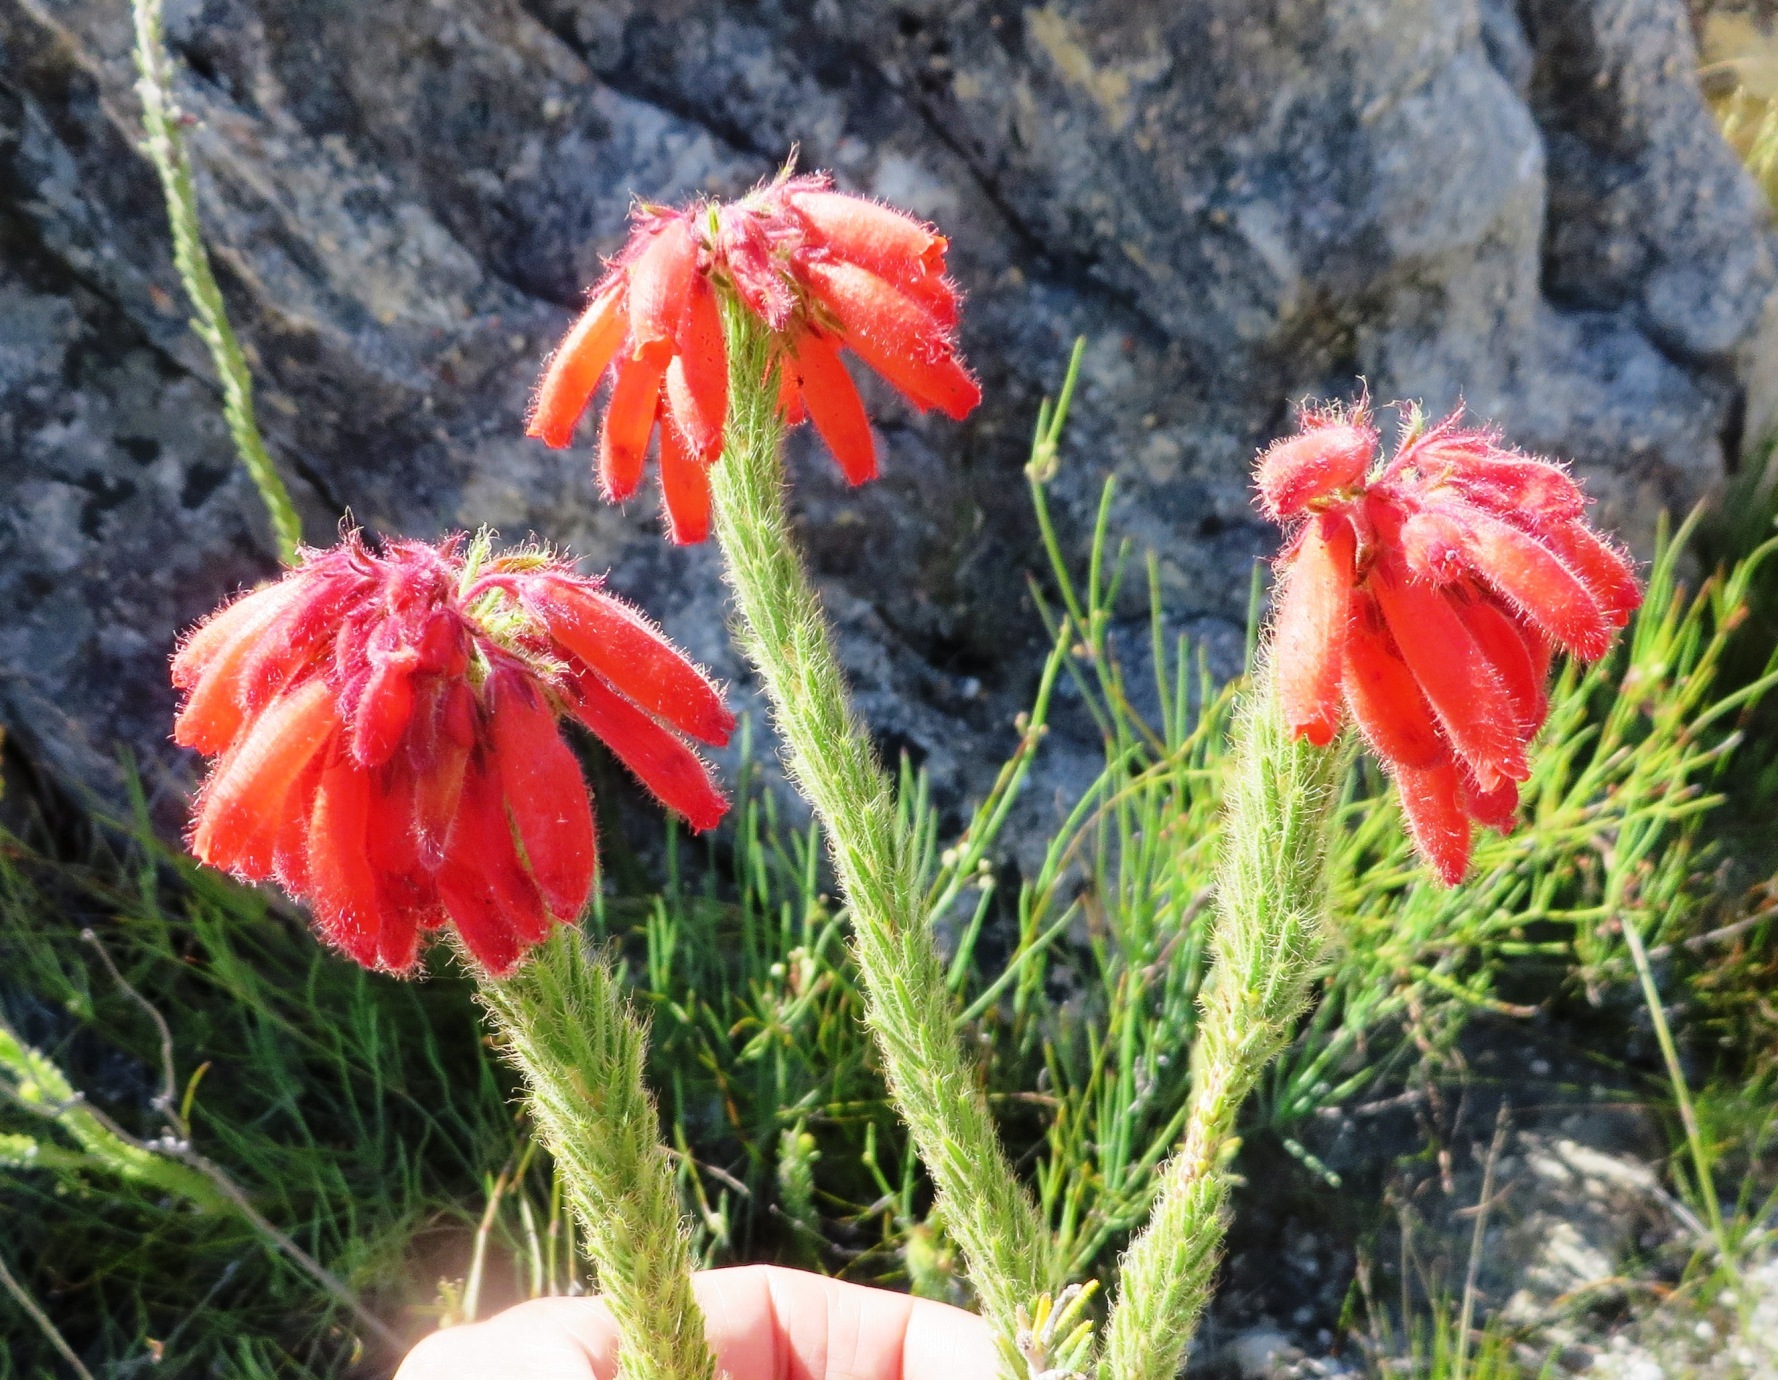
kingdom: Plantae
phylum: Tracheophyta
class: Magnoliopsida
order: Ericales
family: Ericaceae
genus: Erica
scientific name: Erica cerinthoides
